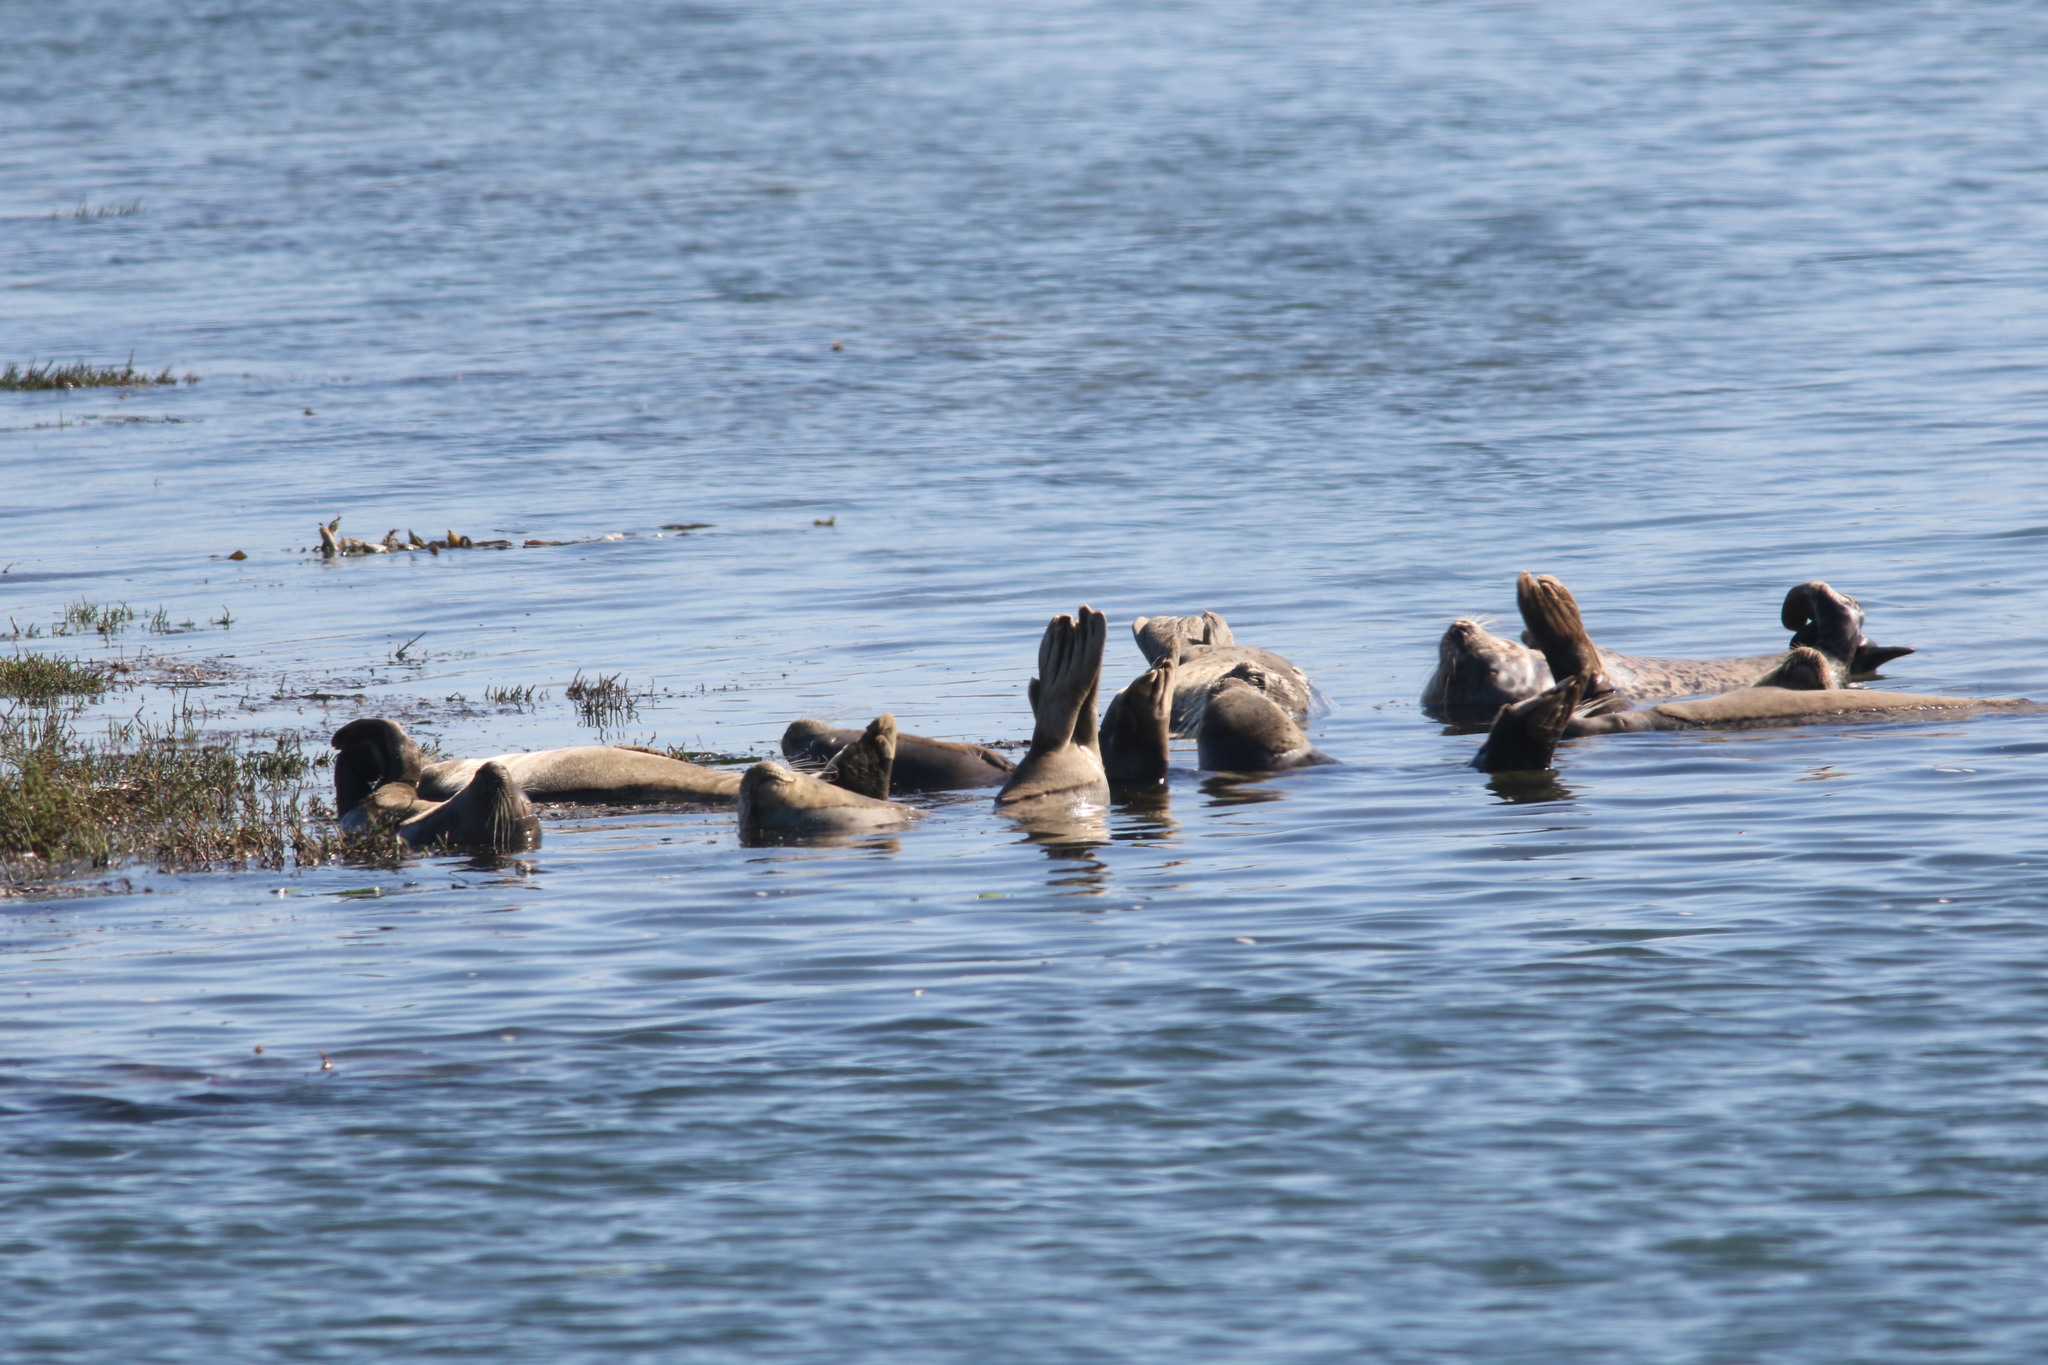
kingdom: Animalia
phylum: Chordata
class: Mammalia
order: Carnivora
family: Phocidae
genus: Phoca
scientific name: Phoca vitulina
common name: Harbor seal
